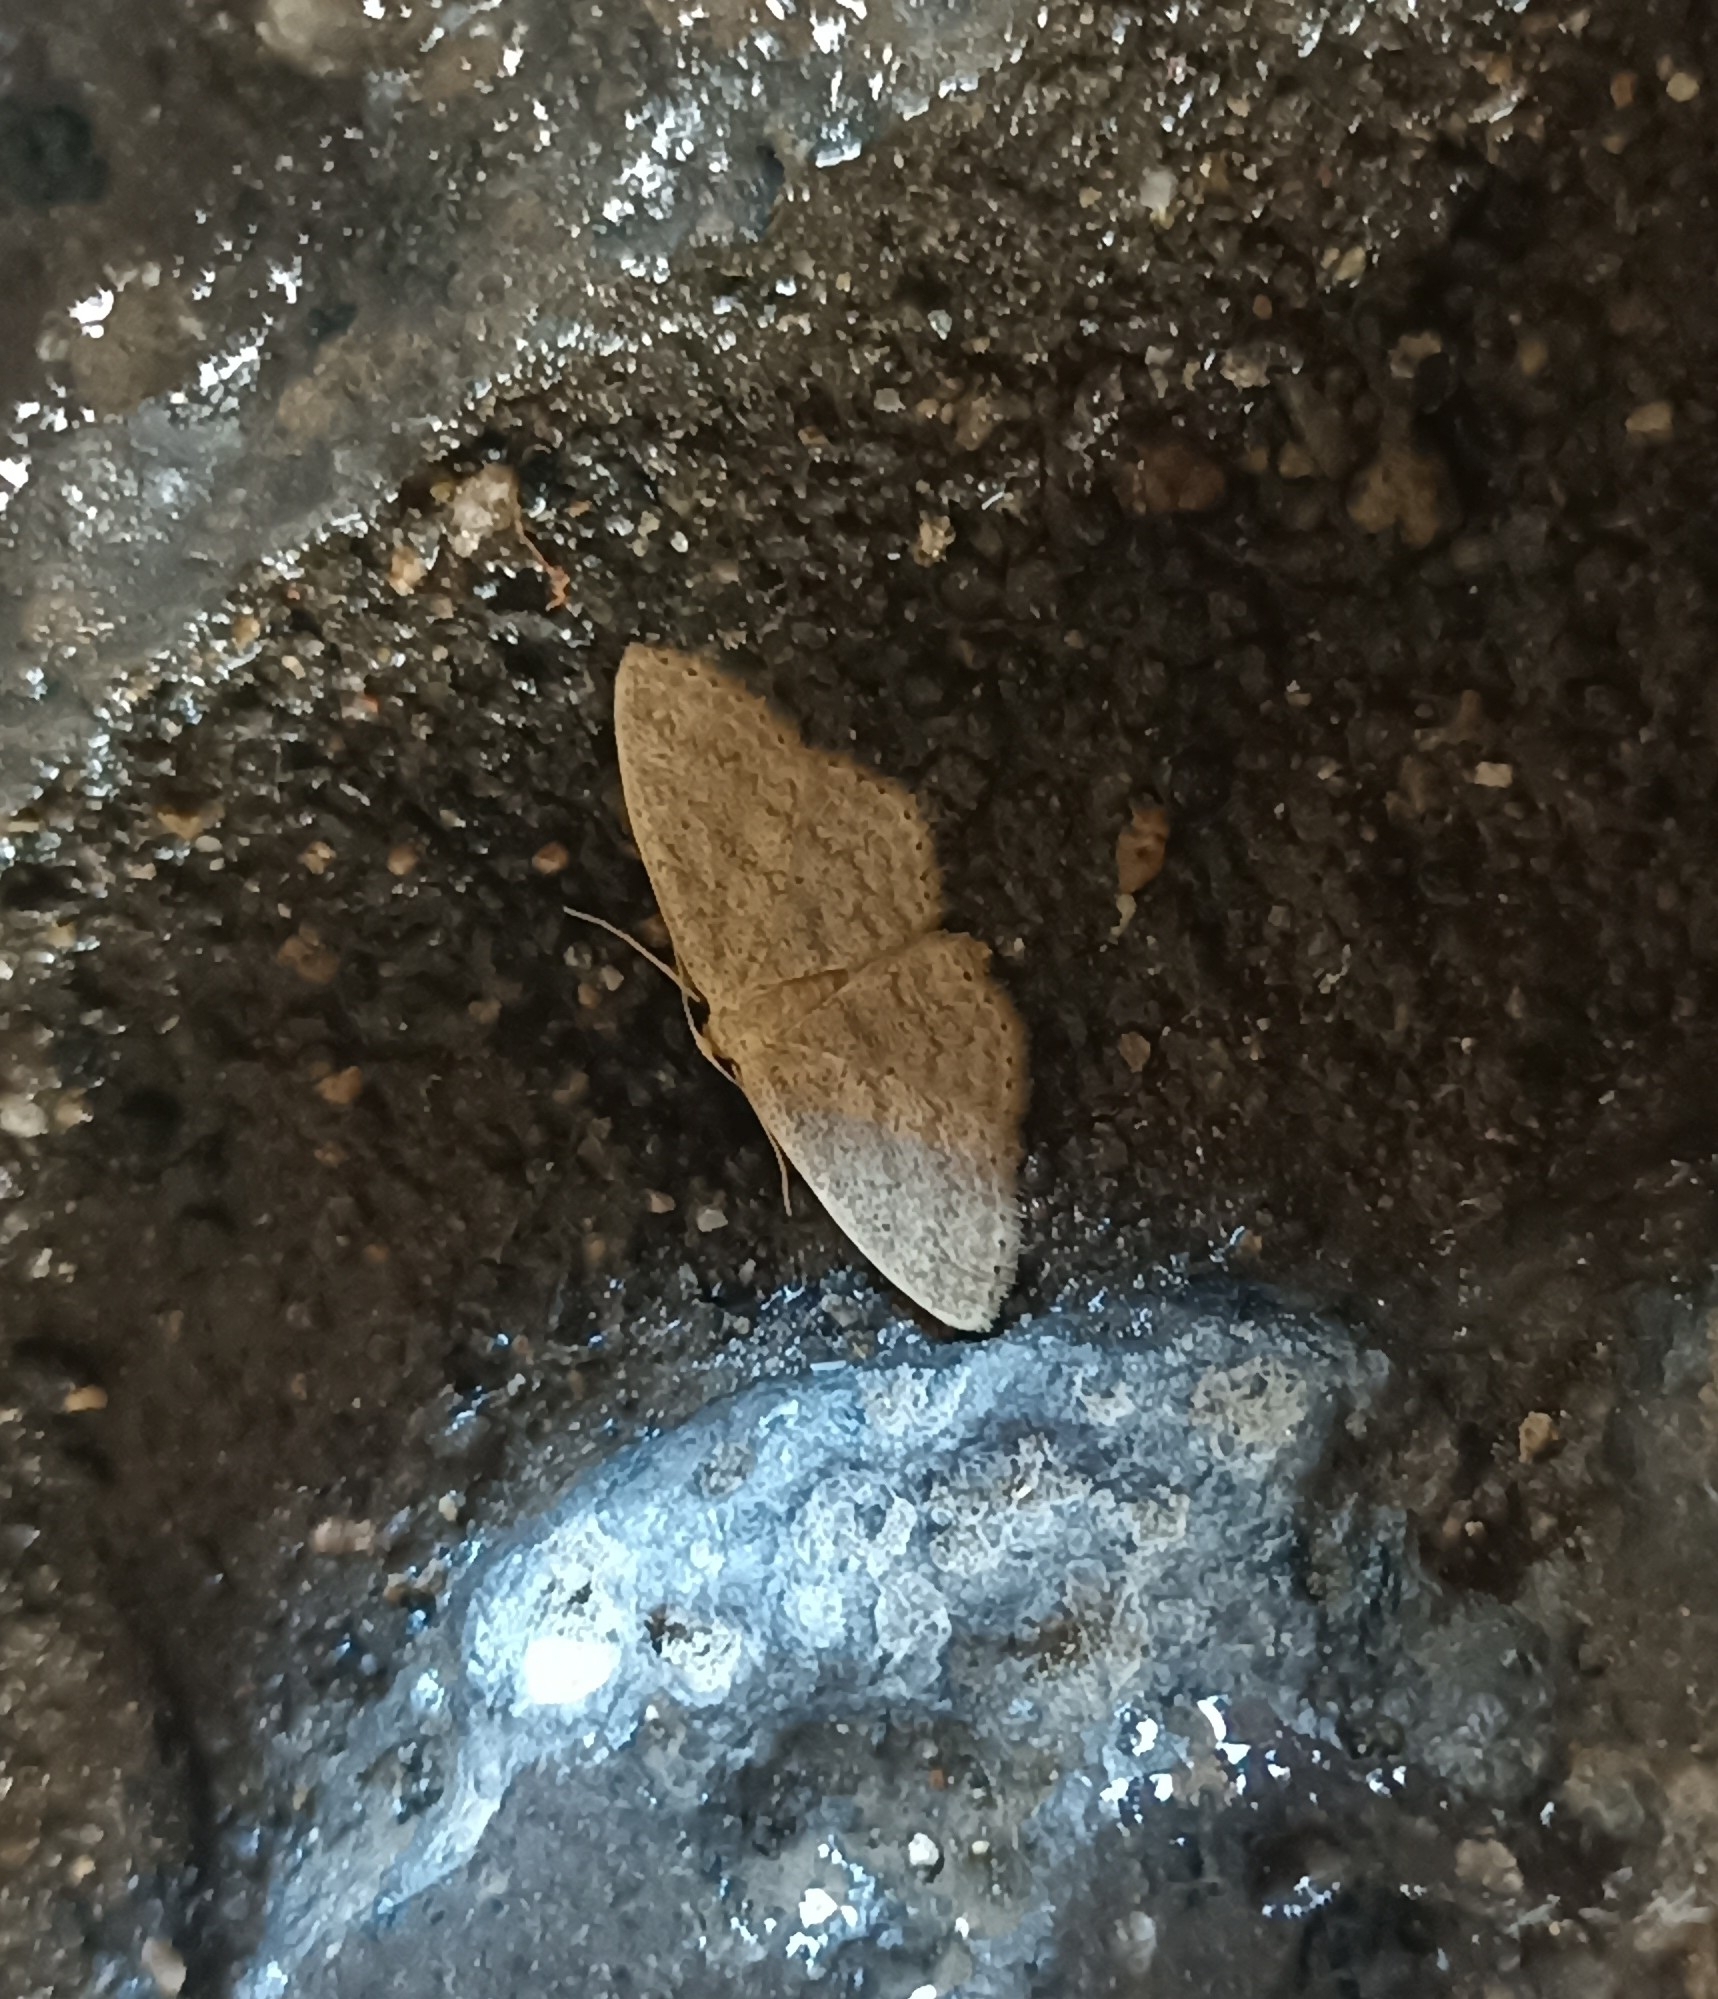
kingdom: Animalia
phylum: Arthropoda
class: Insecta
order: Lepidoptera
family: Geometridae
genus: Scopula
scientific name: Scopula minorata
